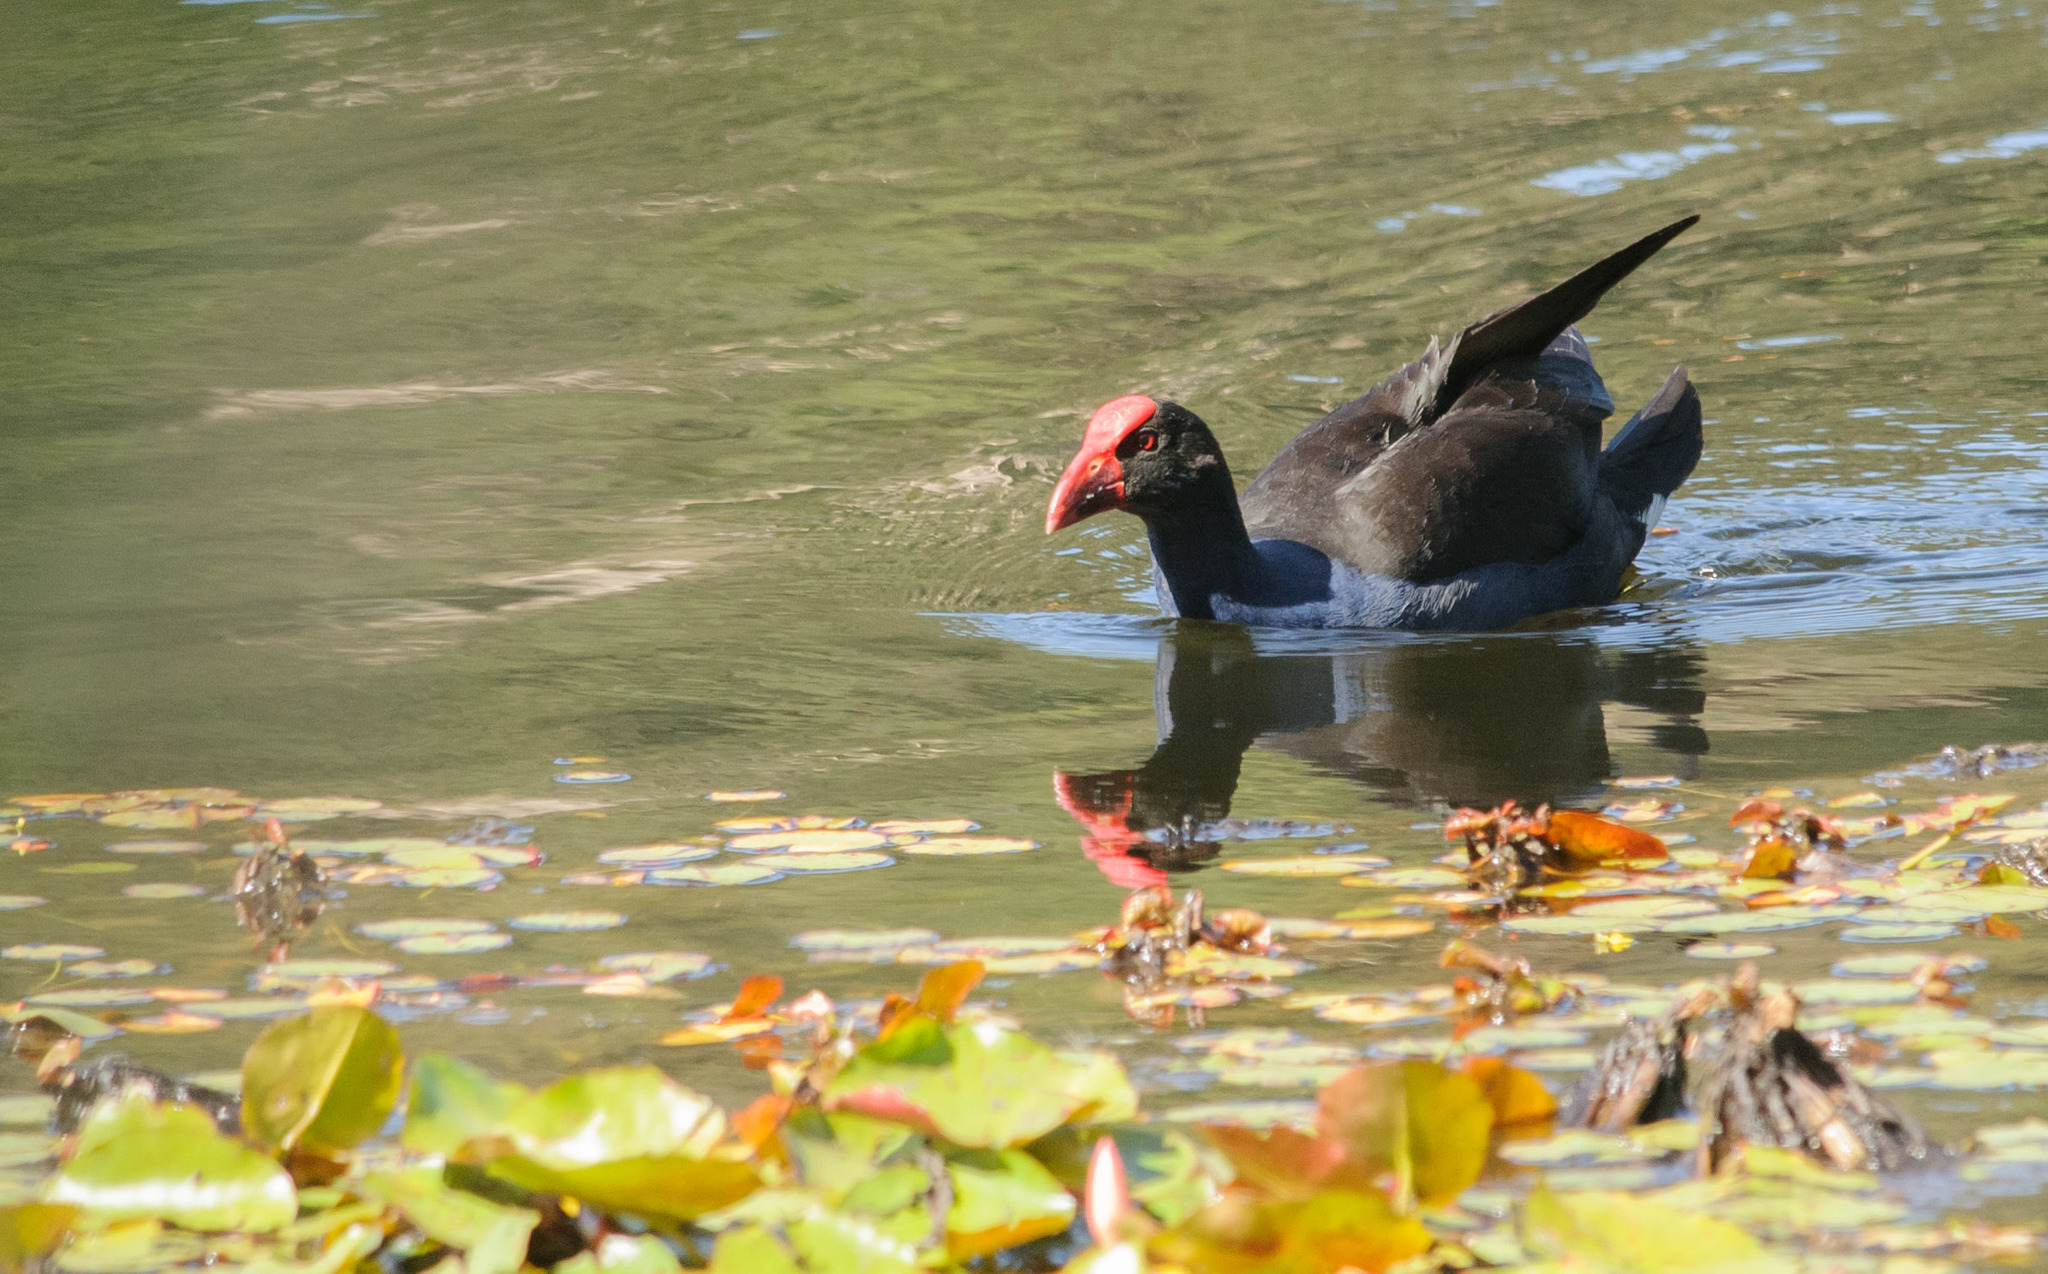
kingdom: Animalia
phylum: Chordata
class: Aves
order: Gruiformes
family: Rallidae
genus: Porphyrio
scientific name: Porphyrio melanotus
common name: Australasian swamphen
